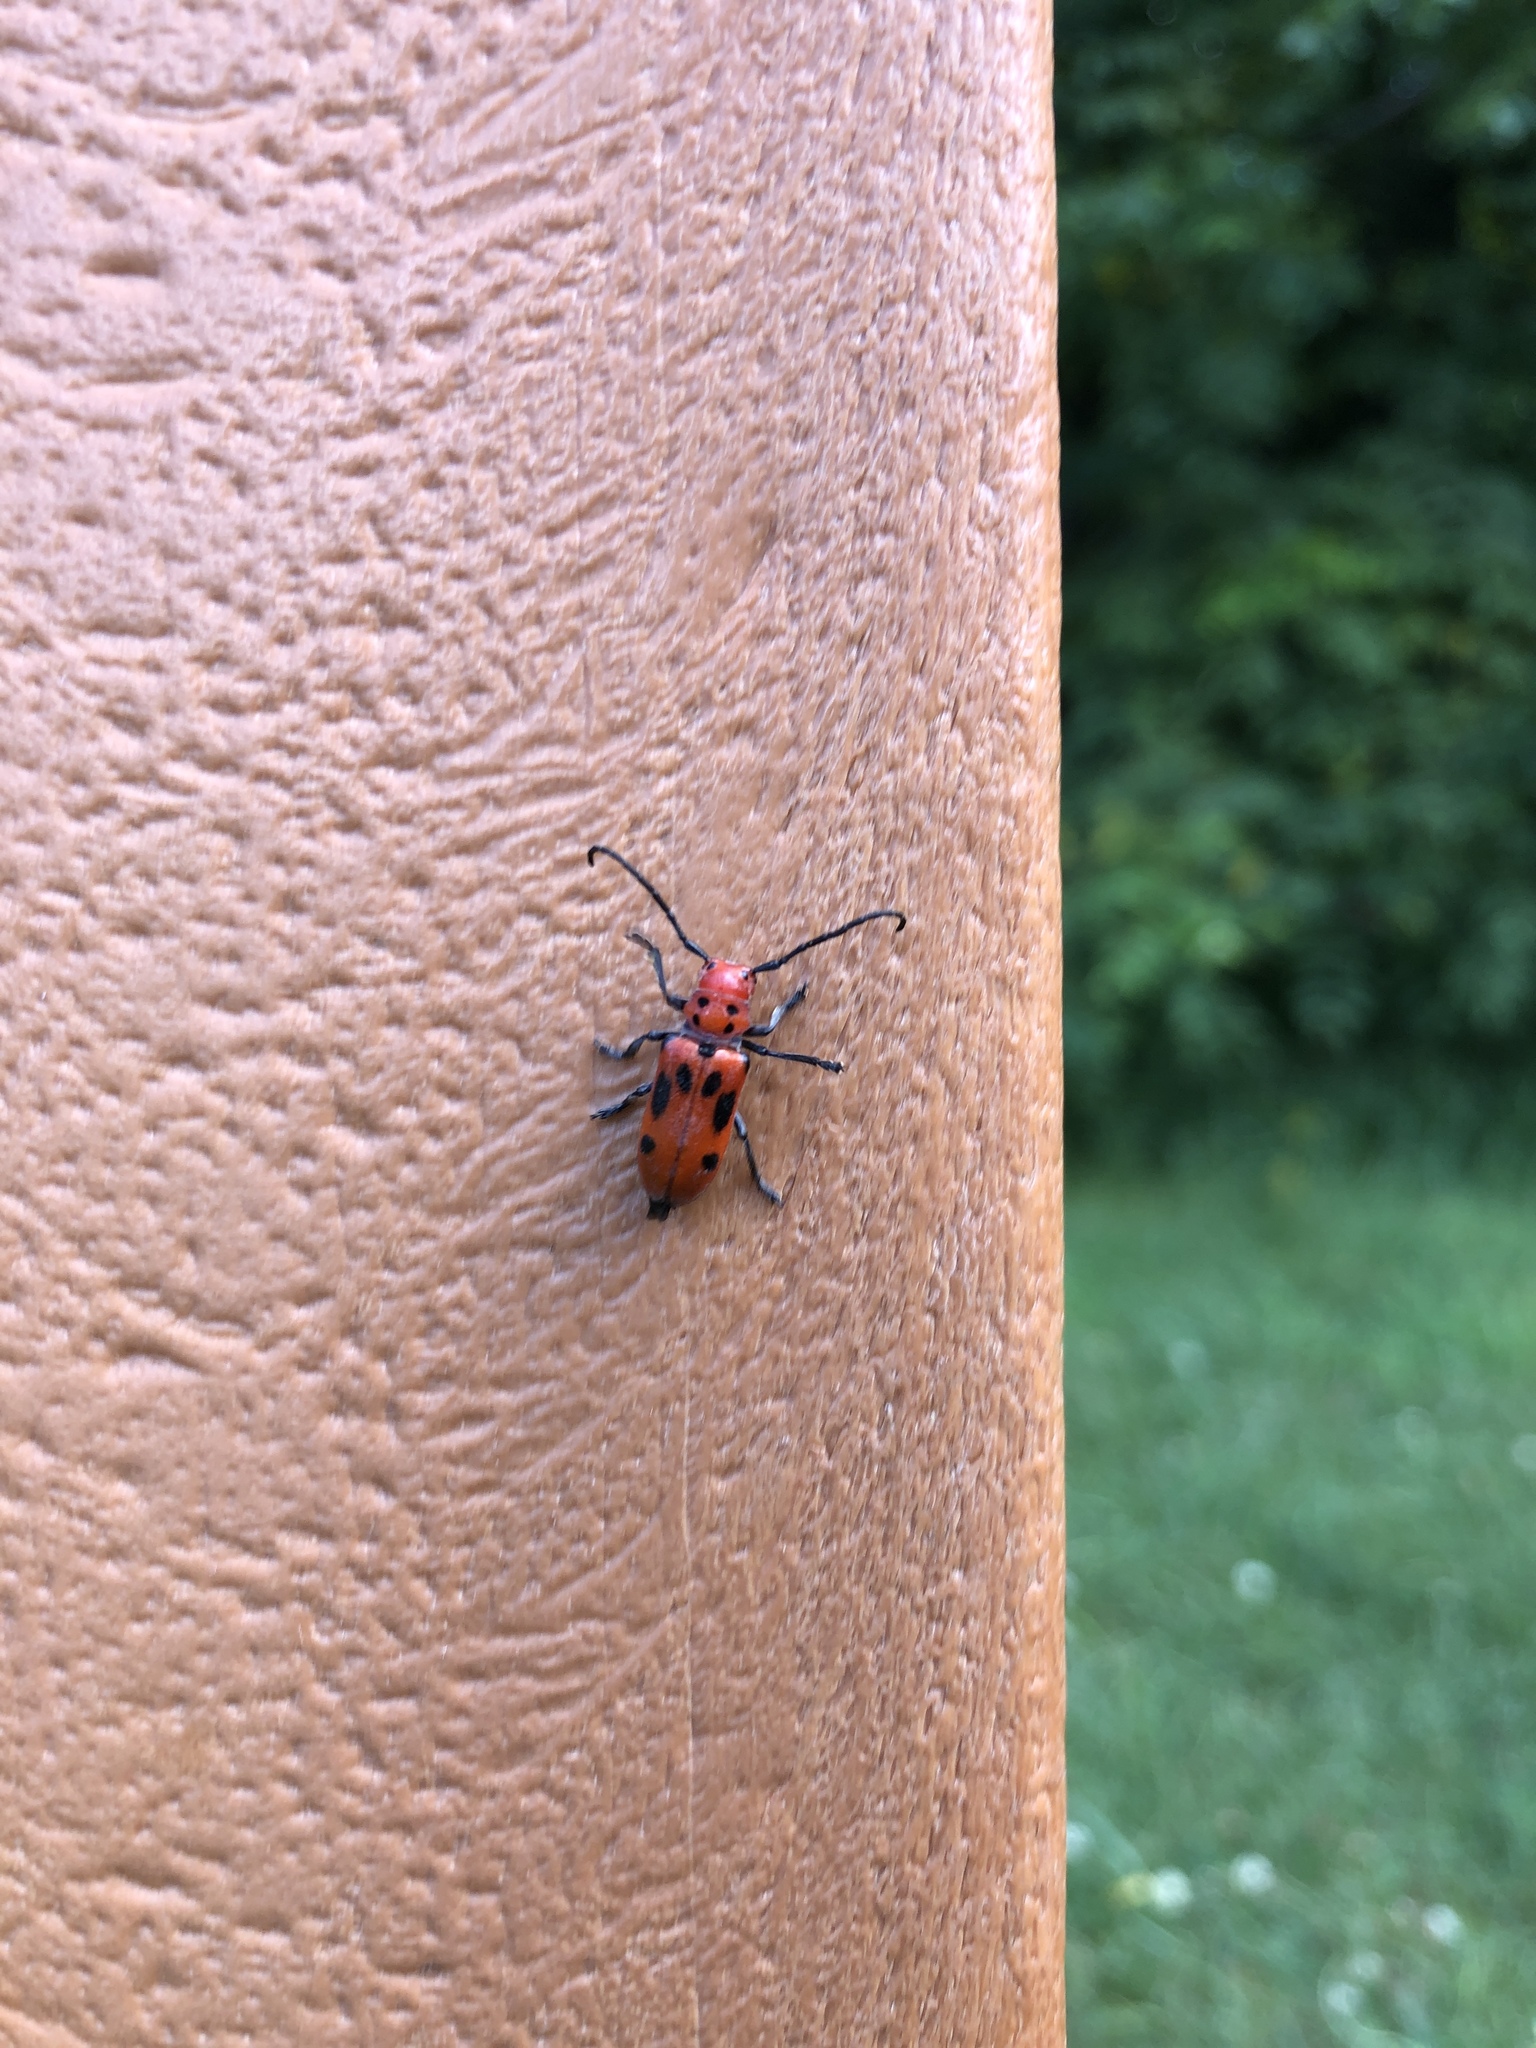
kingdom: Animalia
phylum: Arthropoda
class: Insecta
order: Coleoptera
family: Cerambycidae
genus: Tetraopes
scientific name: Tetraopes tetrophthalmus
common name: Red milkweed beetle
